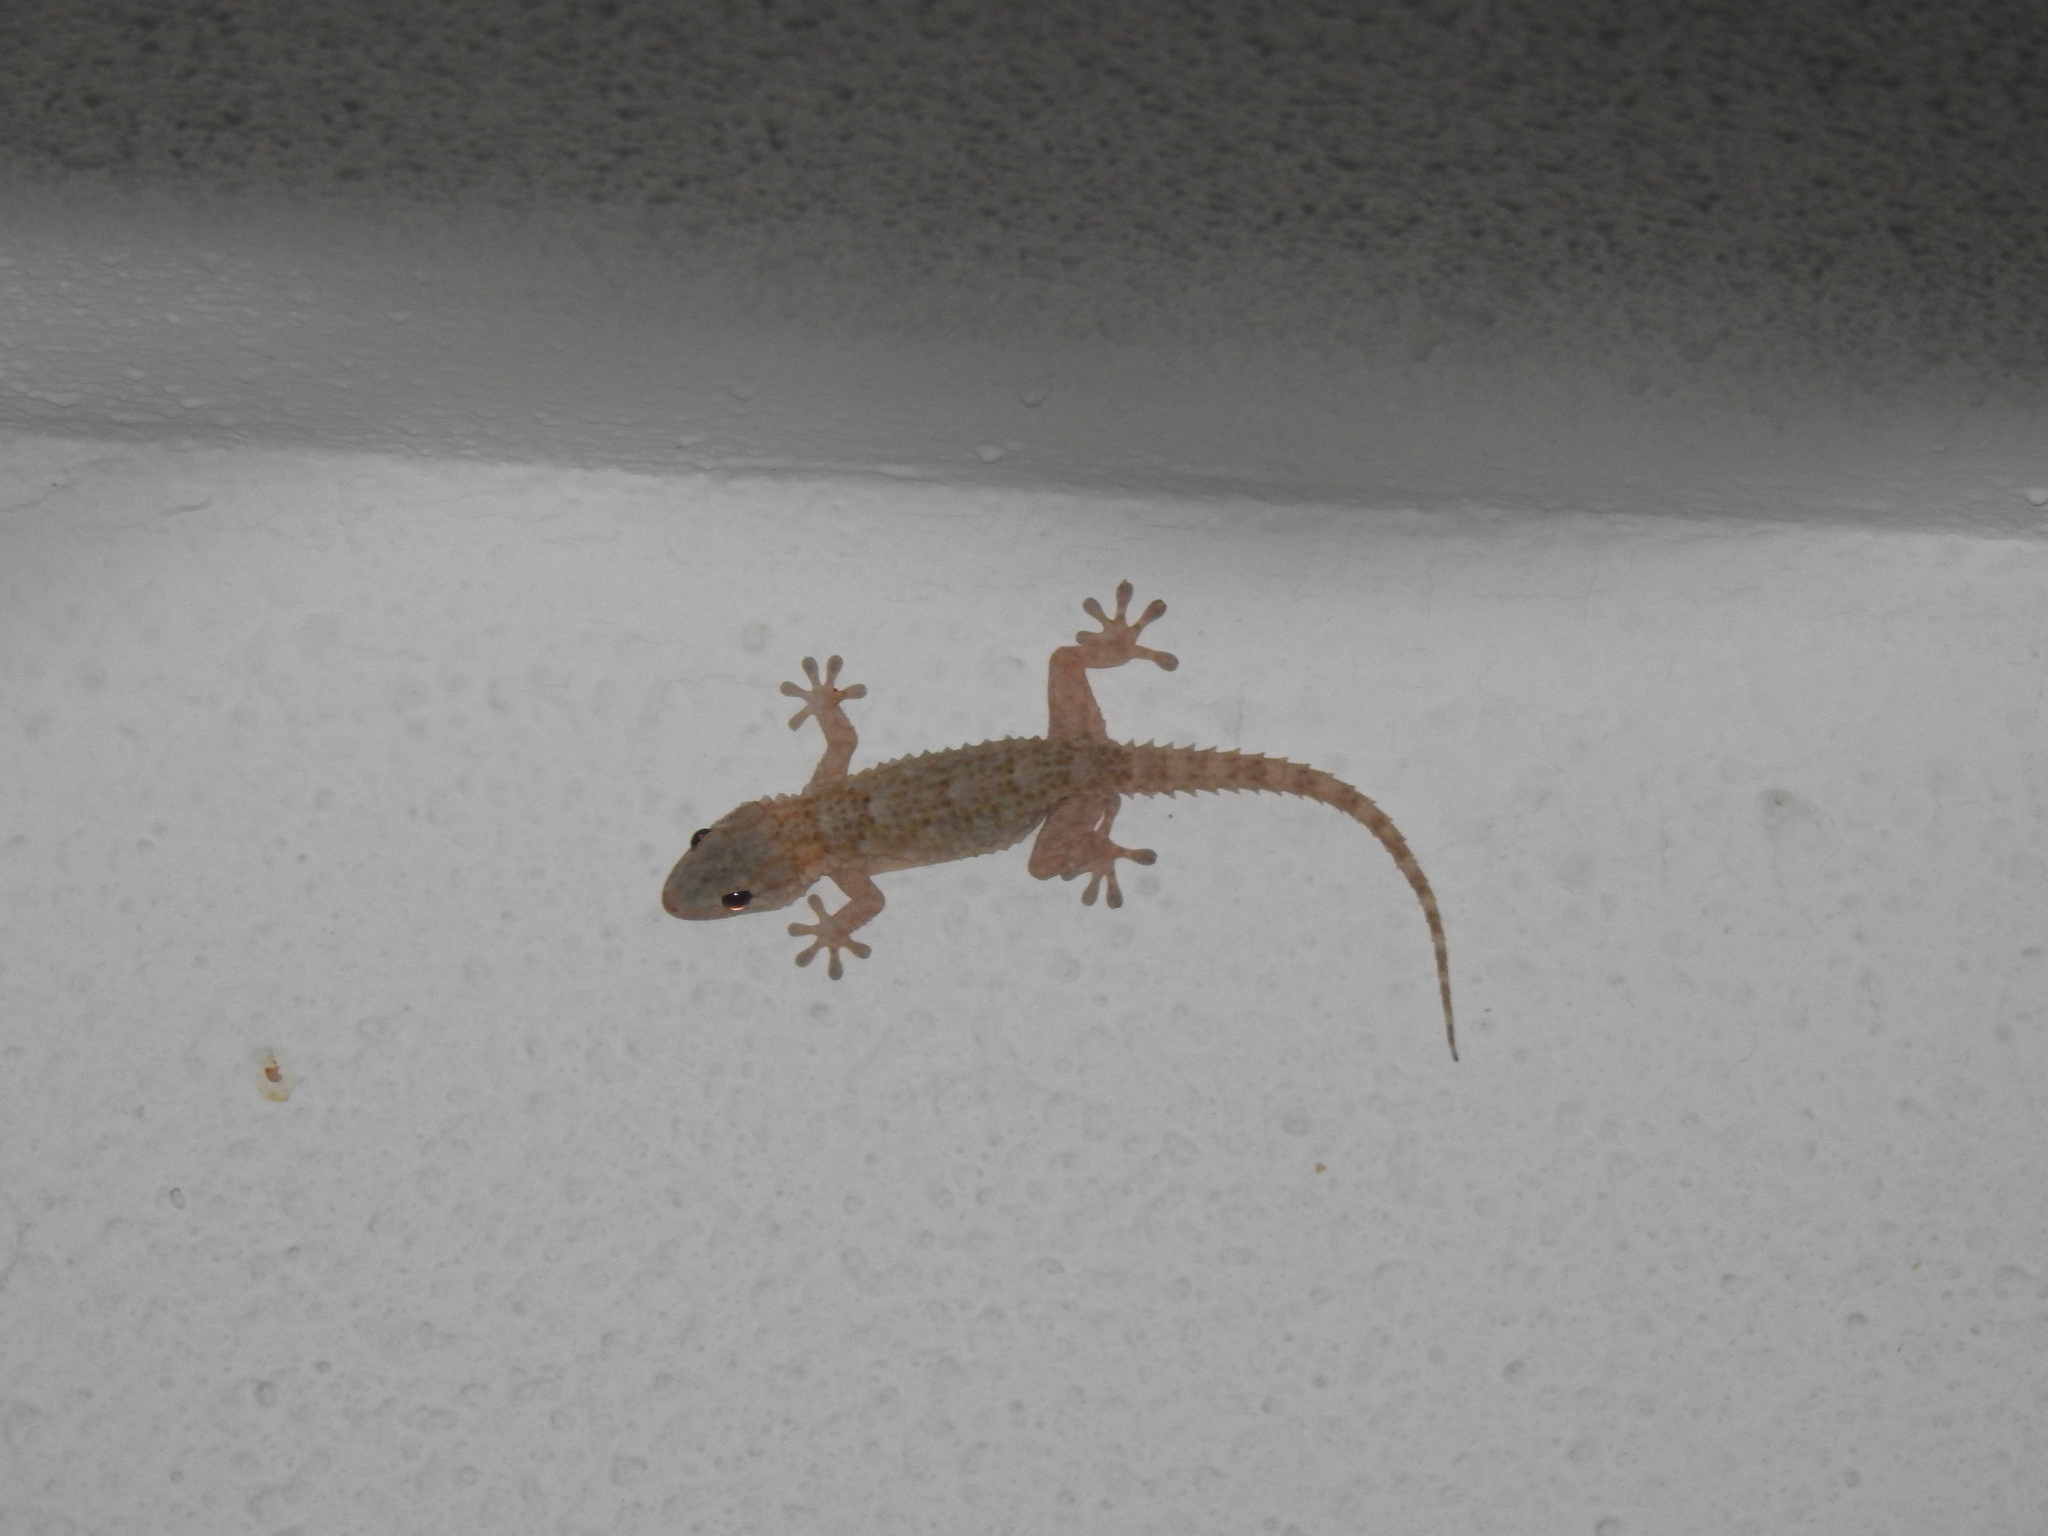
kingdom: Animalia
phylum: Chordata
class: Squamata
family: Phyllodactylidae
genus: Tarentola
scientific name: Tarentola mauritanica
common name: Moorish gecko
